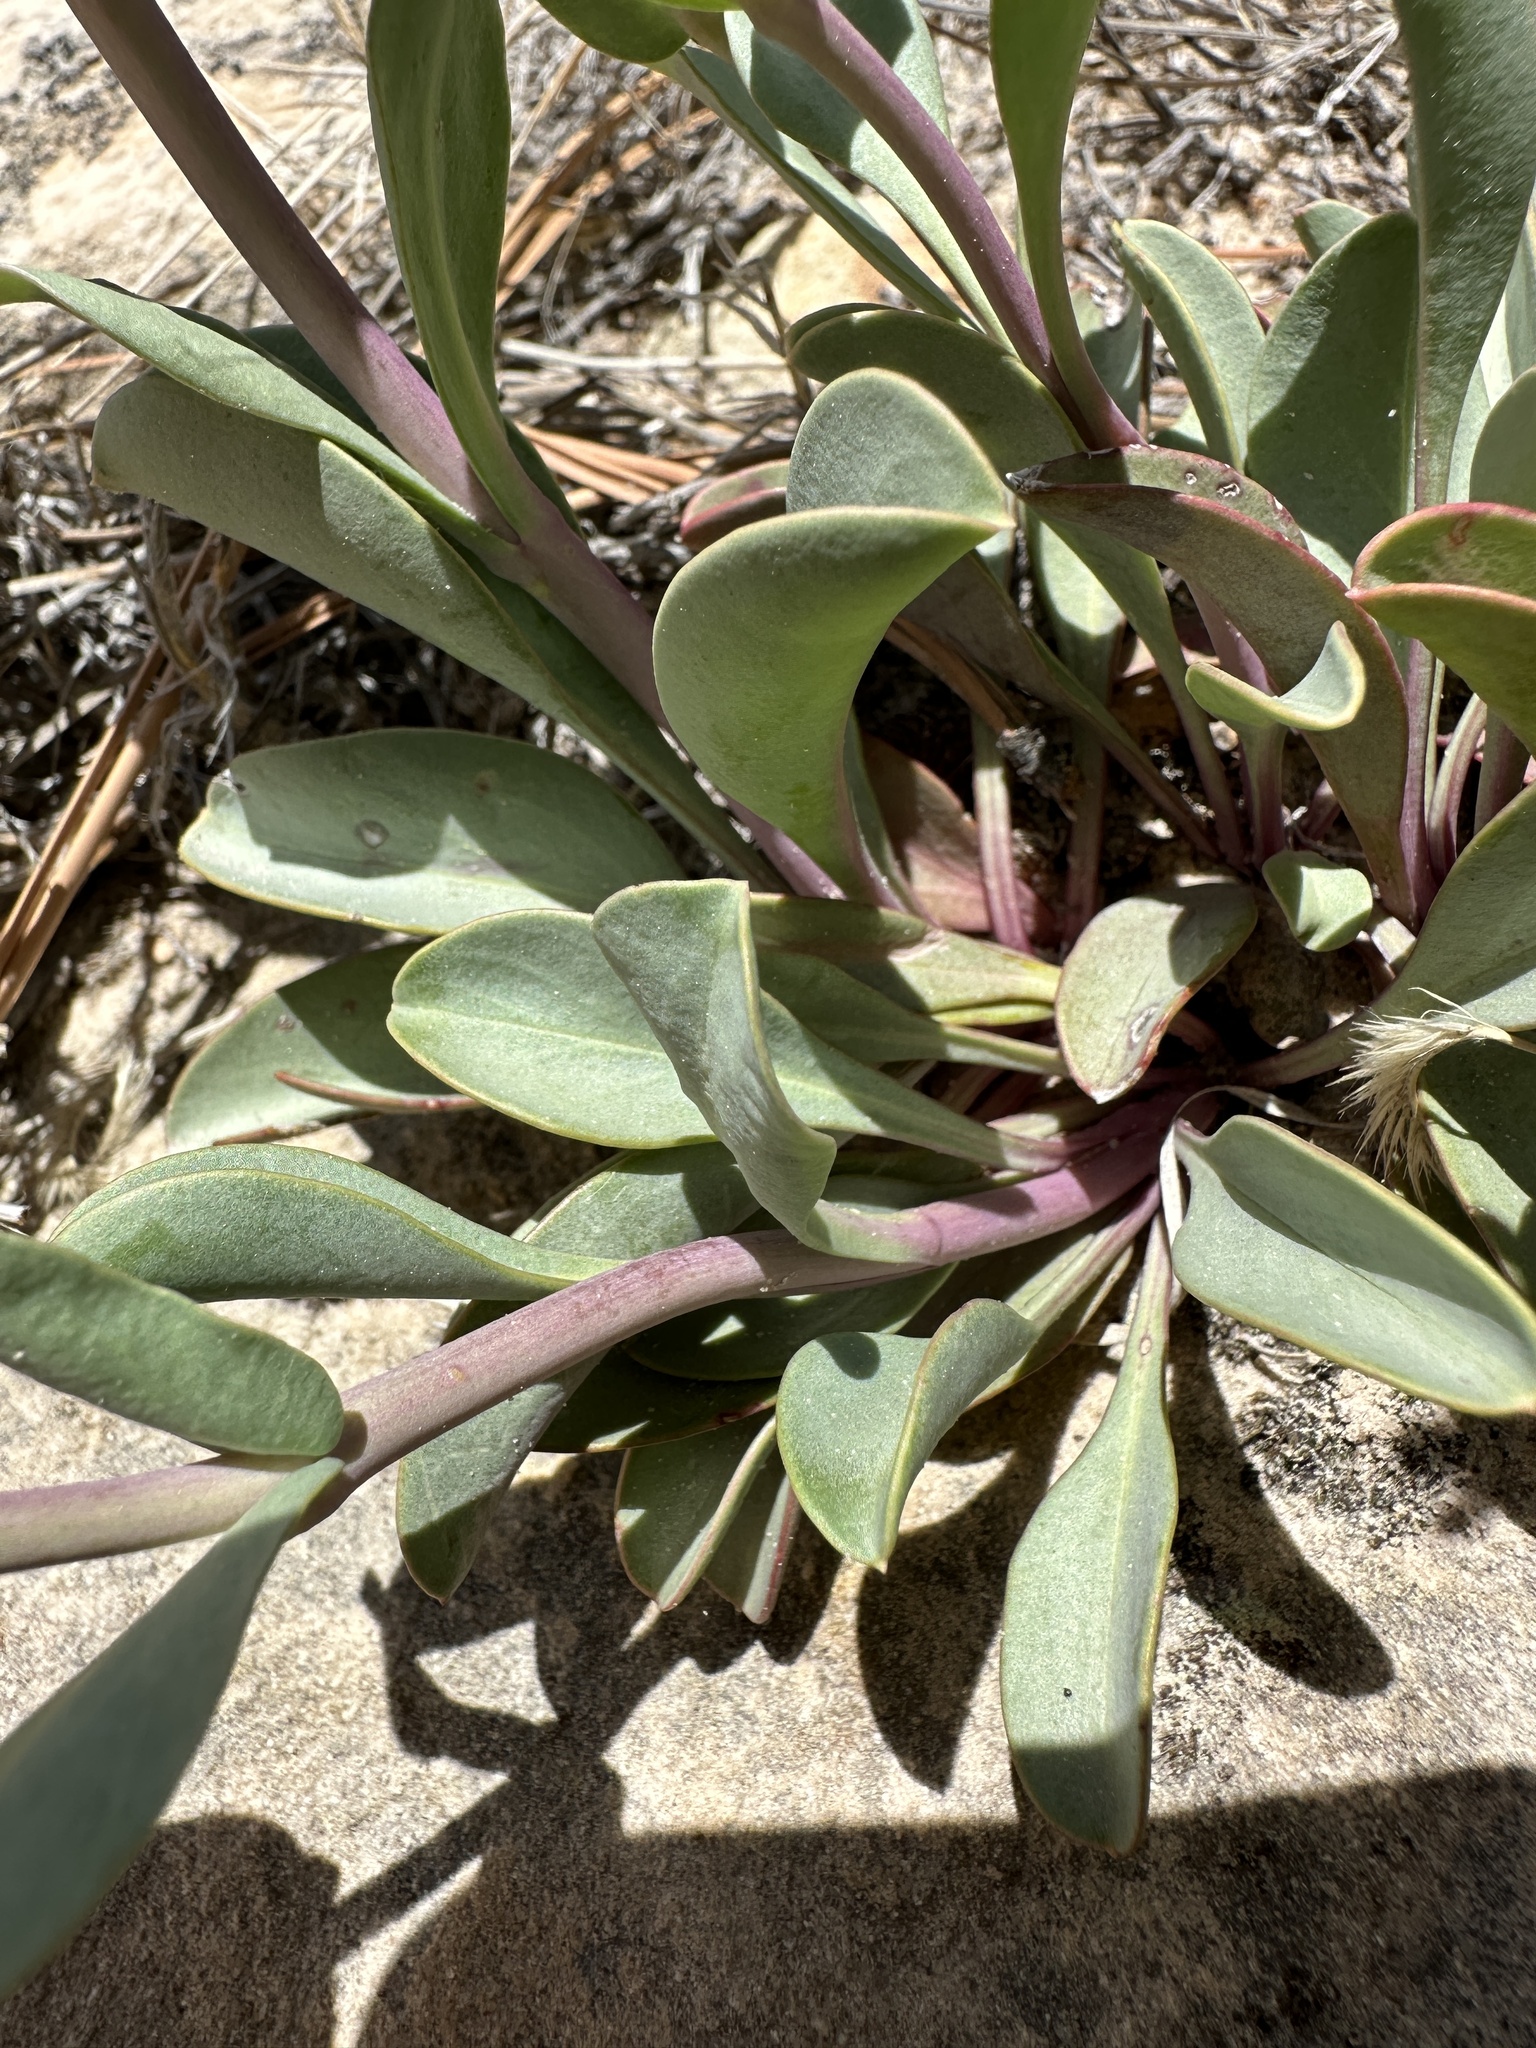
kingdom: Plantae
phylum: Tracheophyta
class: Magnoliopsida
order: Lamiales
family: Plantaginaceae
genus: Penstemon
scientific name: Penstemon carnosus
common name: Fleshy penstemon
